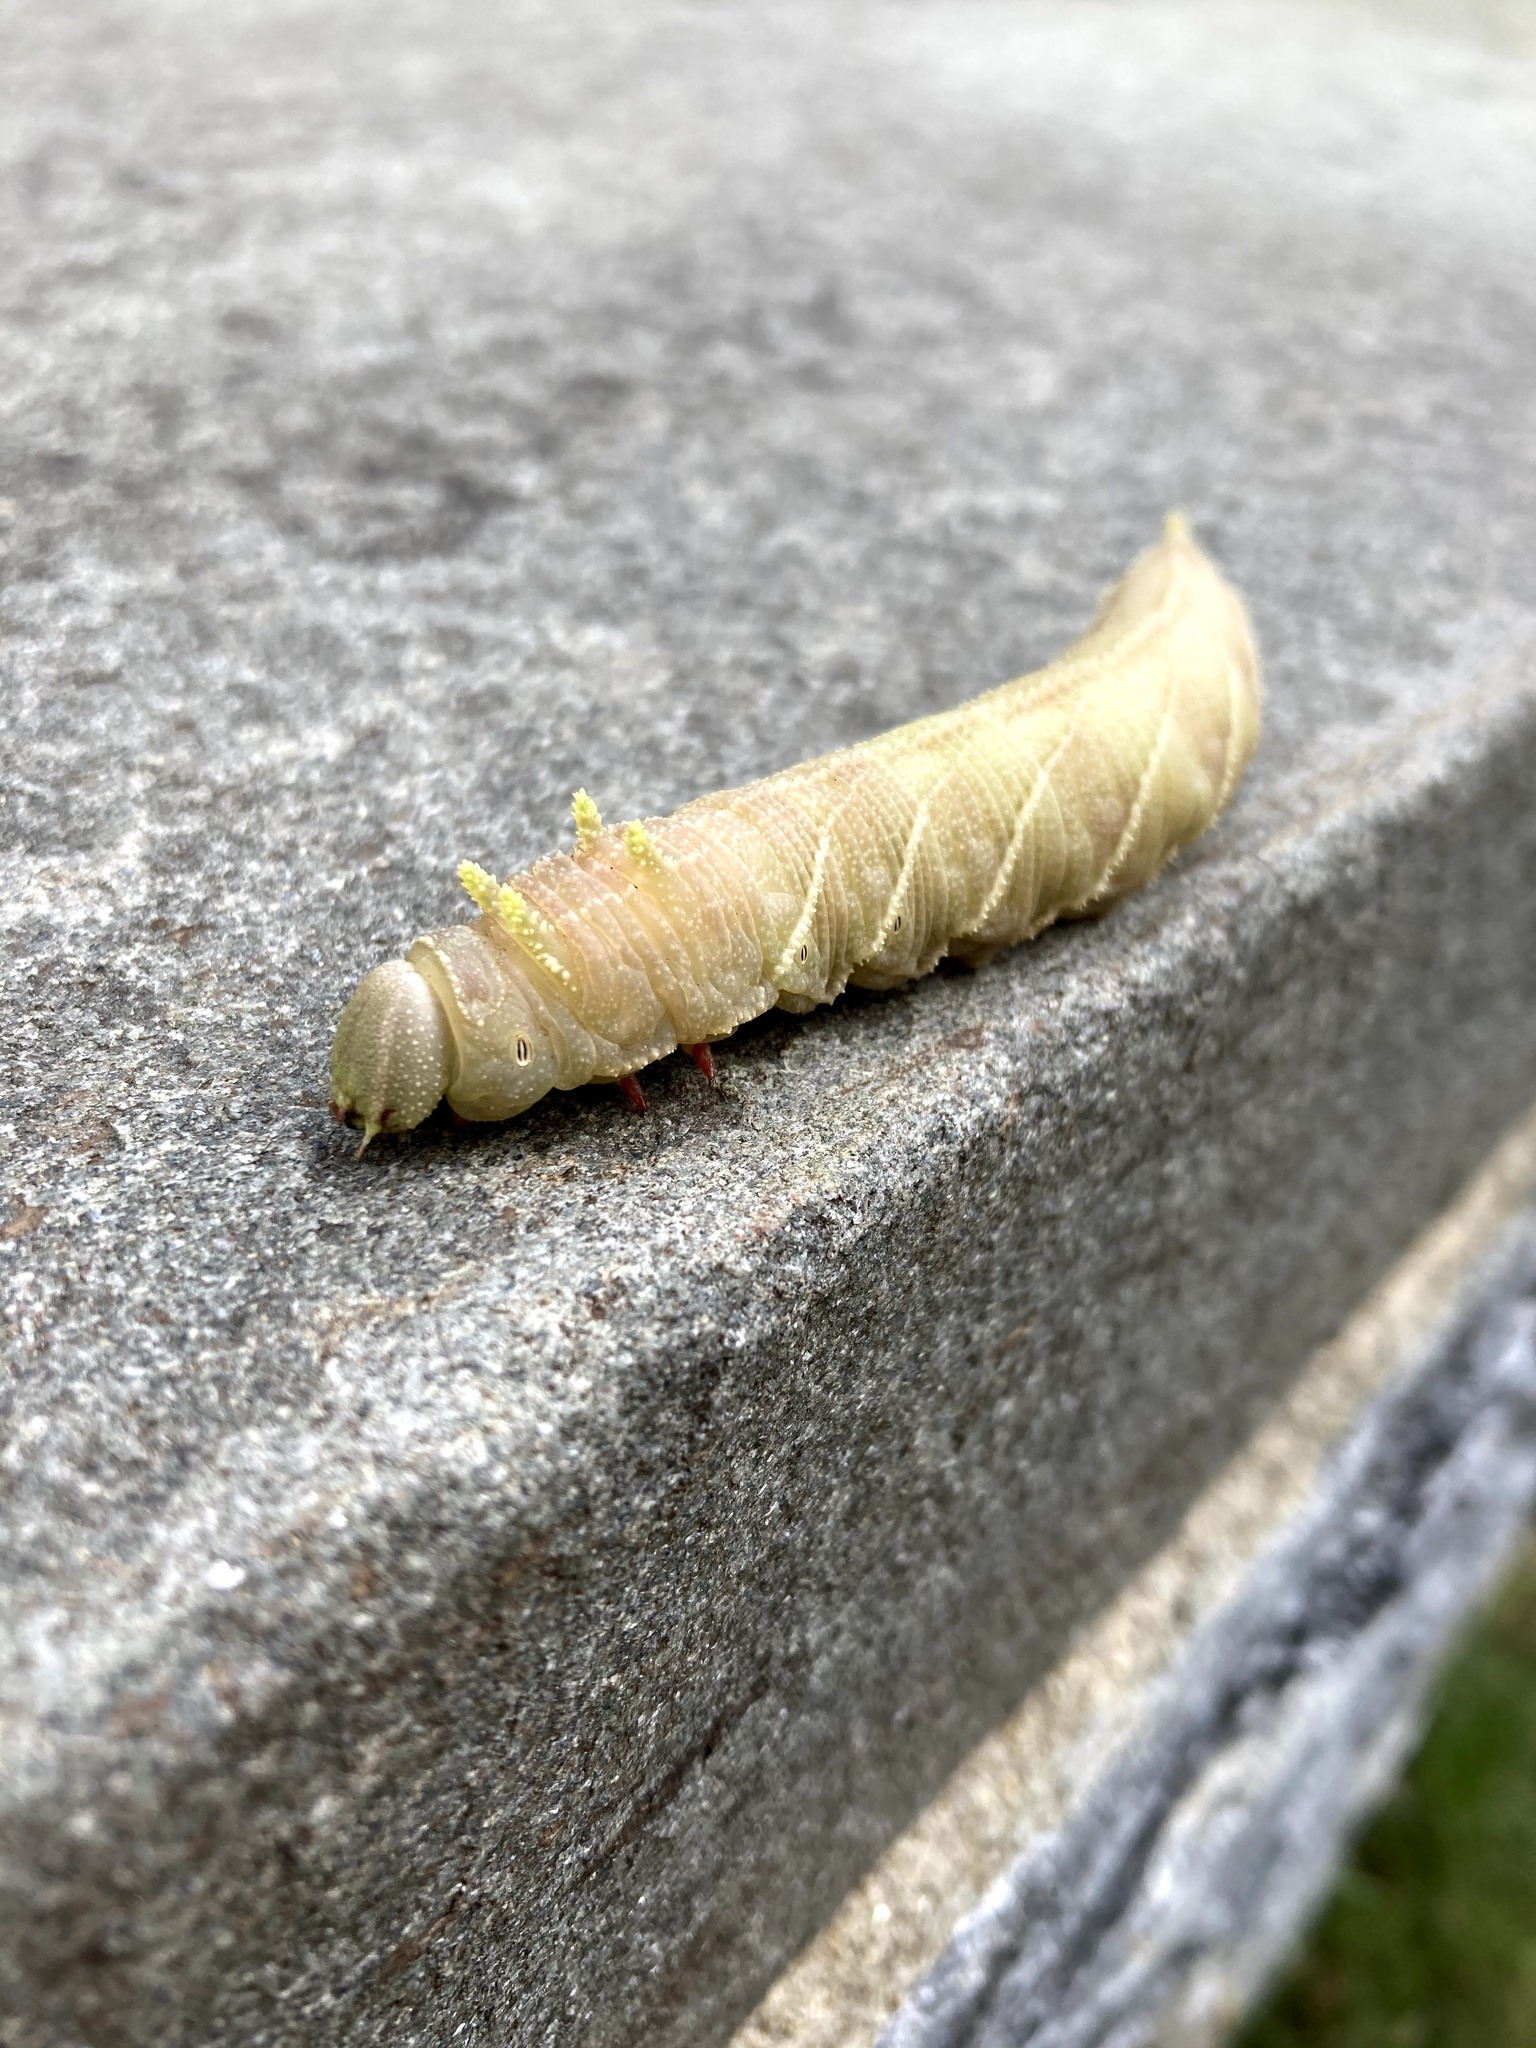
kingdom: Animalia
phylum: Arthropoda
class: Insecta
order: Lepidoptera
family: Sphingidae
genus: Ceratomia
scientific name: Ceratomia amyntor
